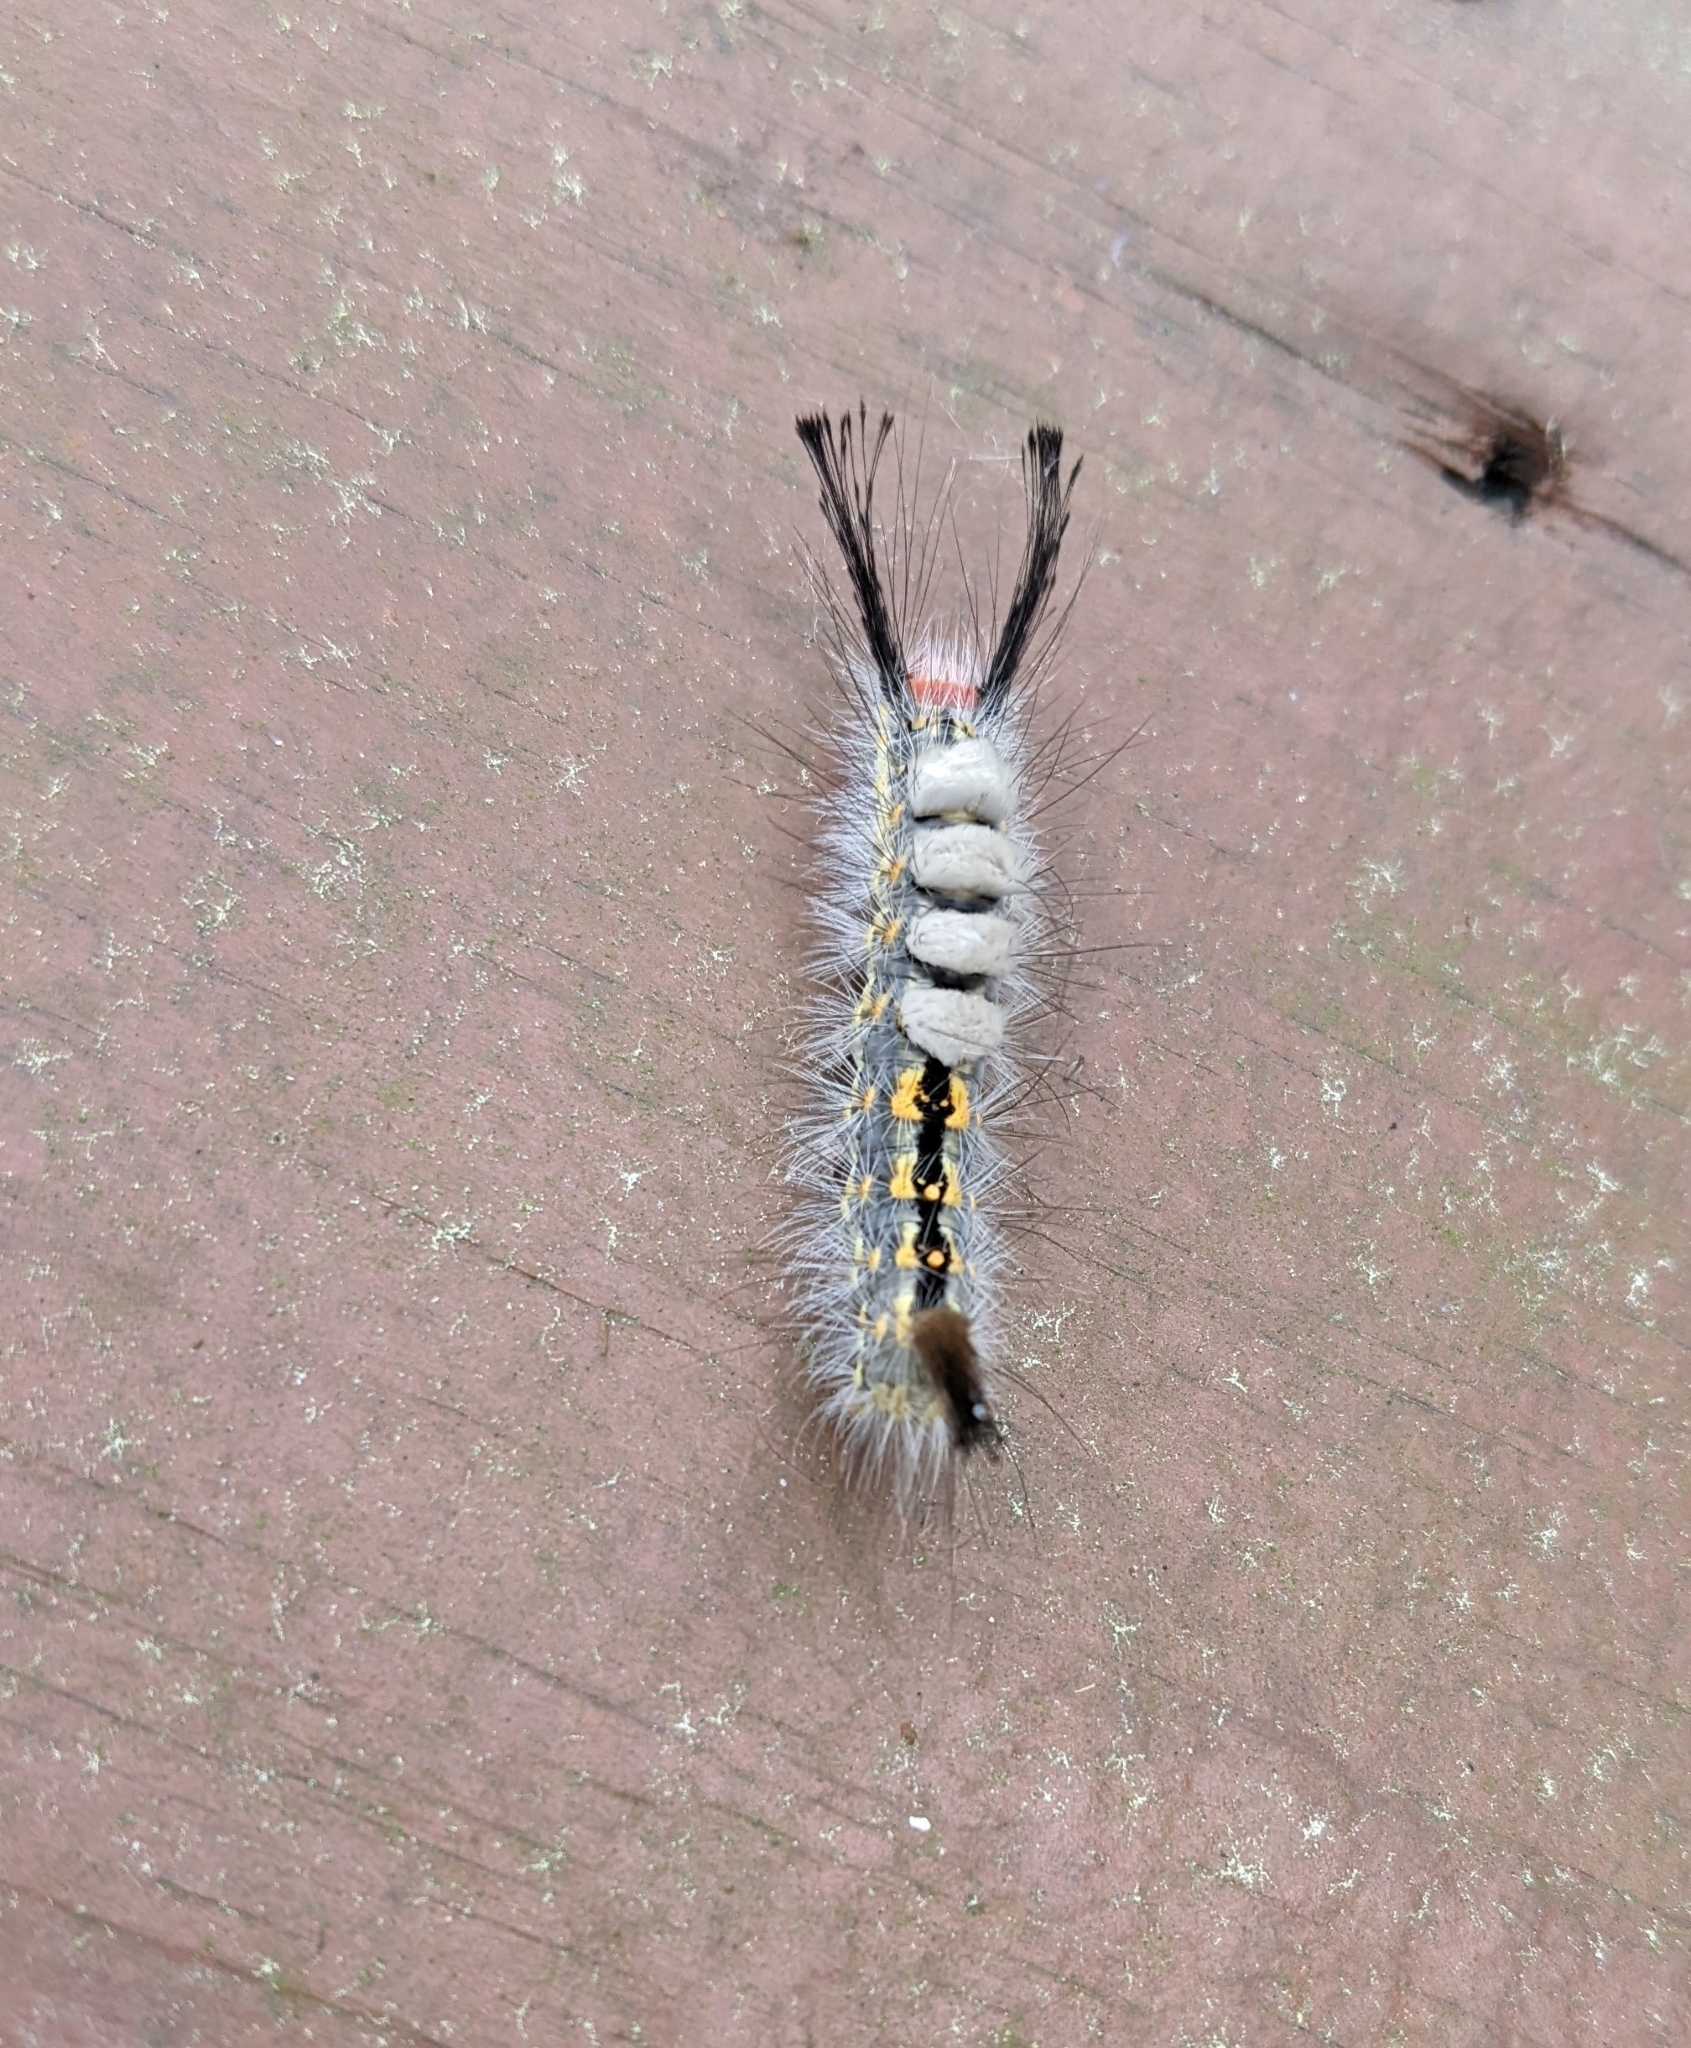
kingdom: Animalia
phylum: Arthropoda
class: Insecta
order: Lepidoptera
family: Erebidae
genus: Orgyia
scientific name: Orgyia detrita
